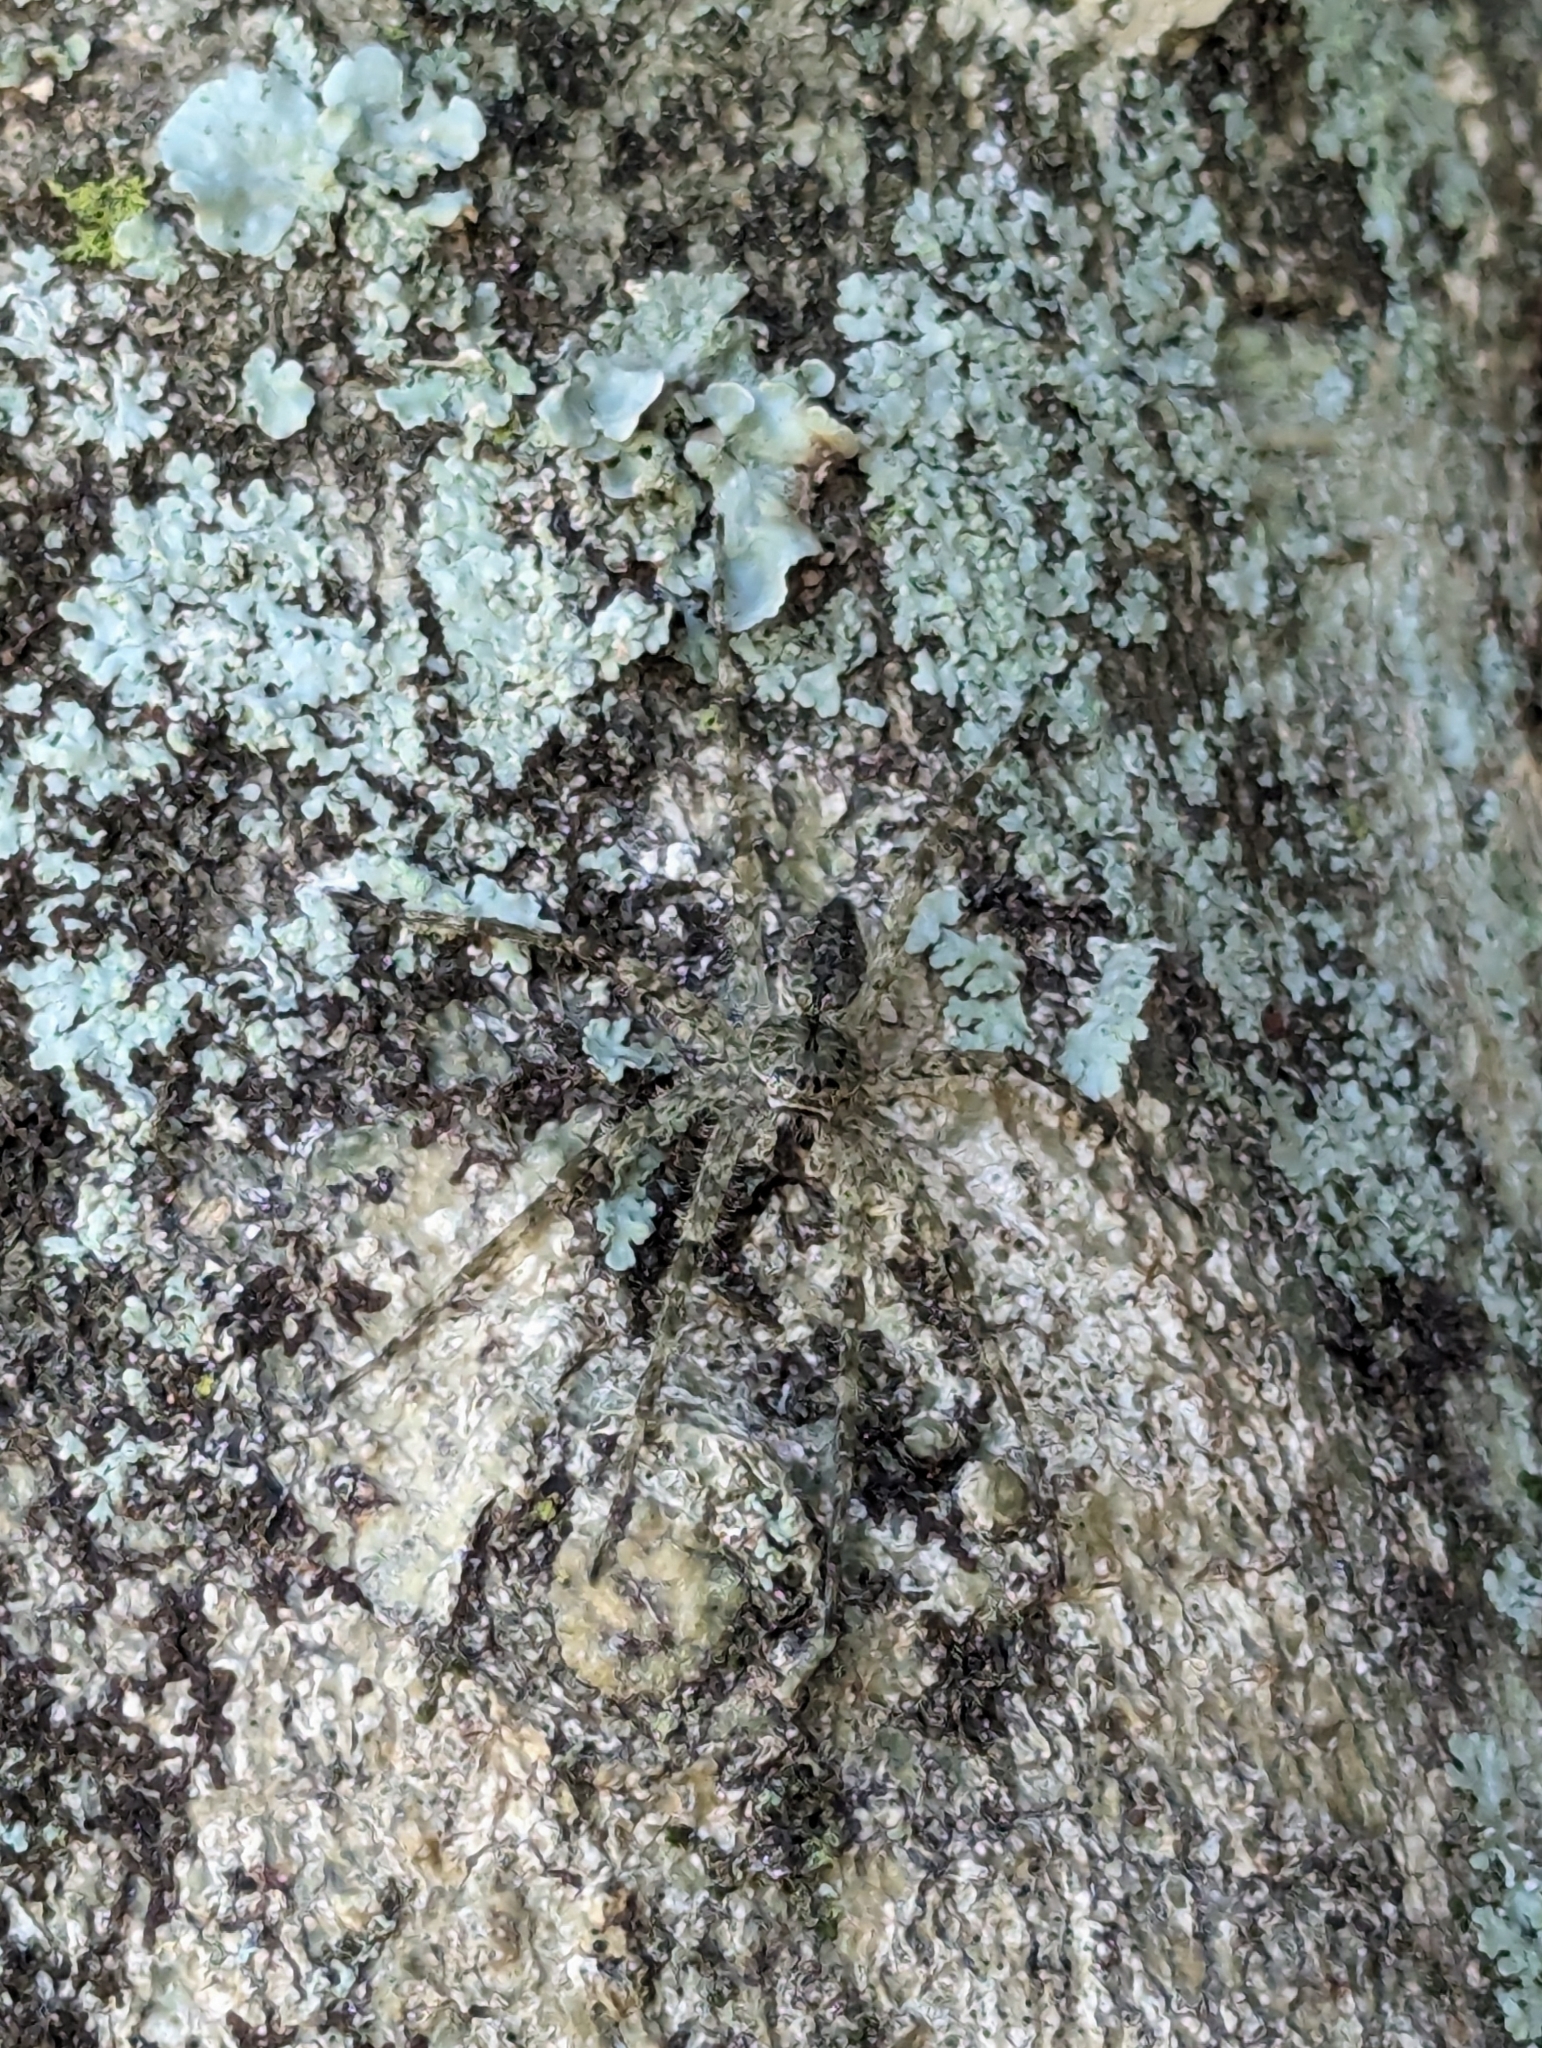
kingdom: Animalia
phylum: Arthropoda
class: Arachnida
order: Araneae
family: Pisauridae
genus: Dolomedes
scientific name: Dolomedes albineus
